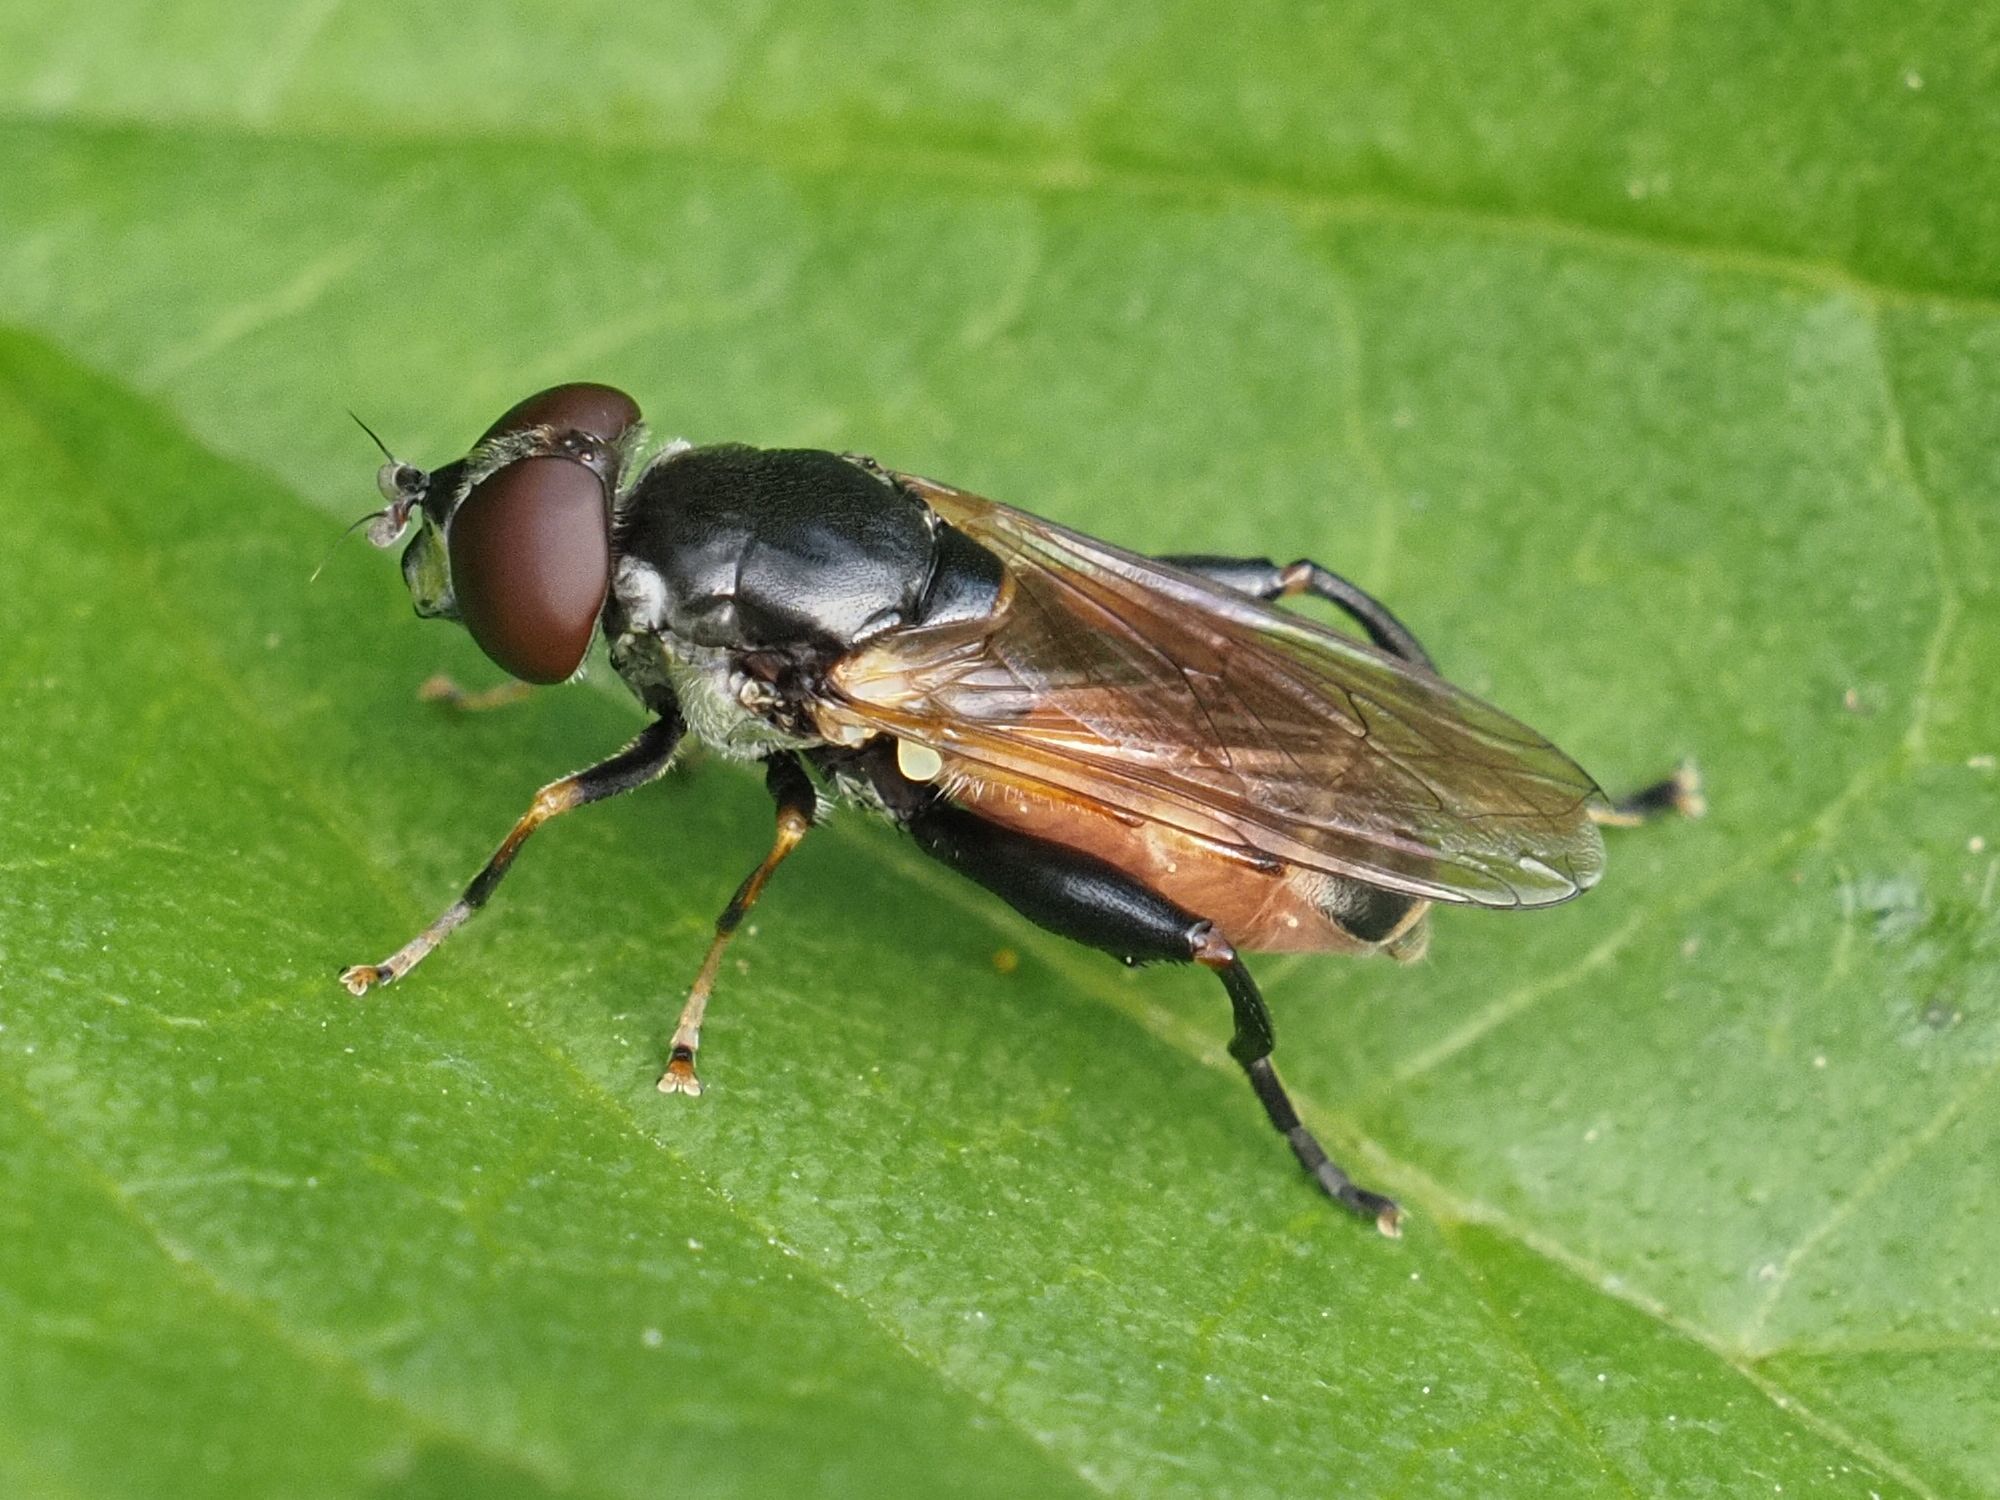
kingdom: Animalia
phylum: Arthropoda
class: Insecta
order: Diptera
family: Syrphidae
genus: Tropidia
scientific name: Tropidia scita
